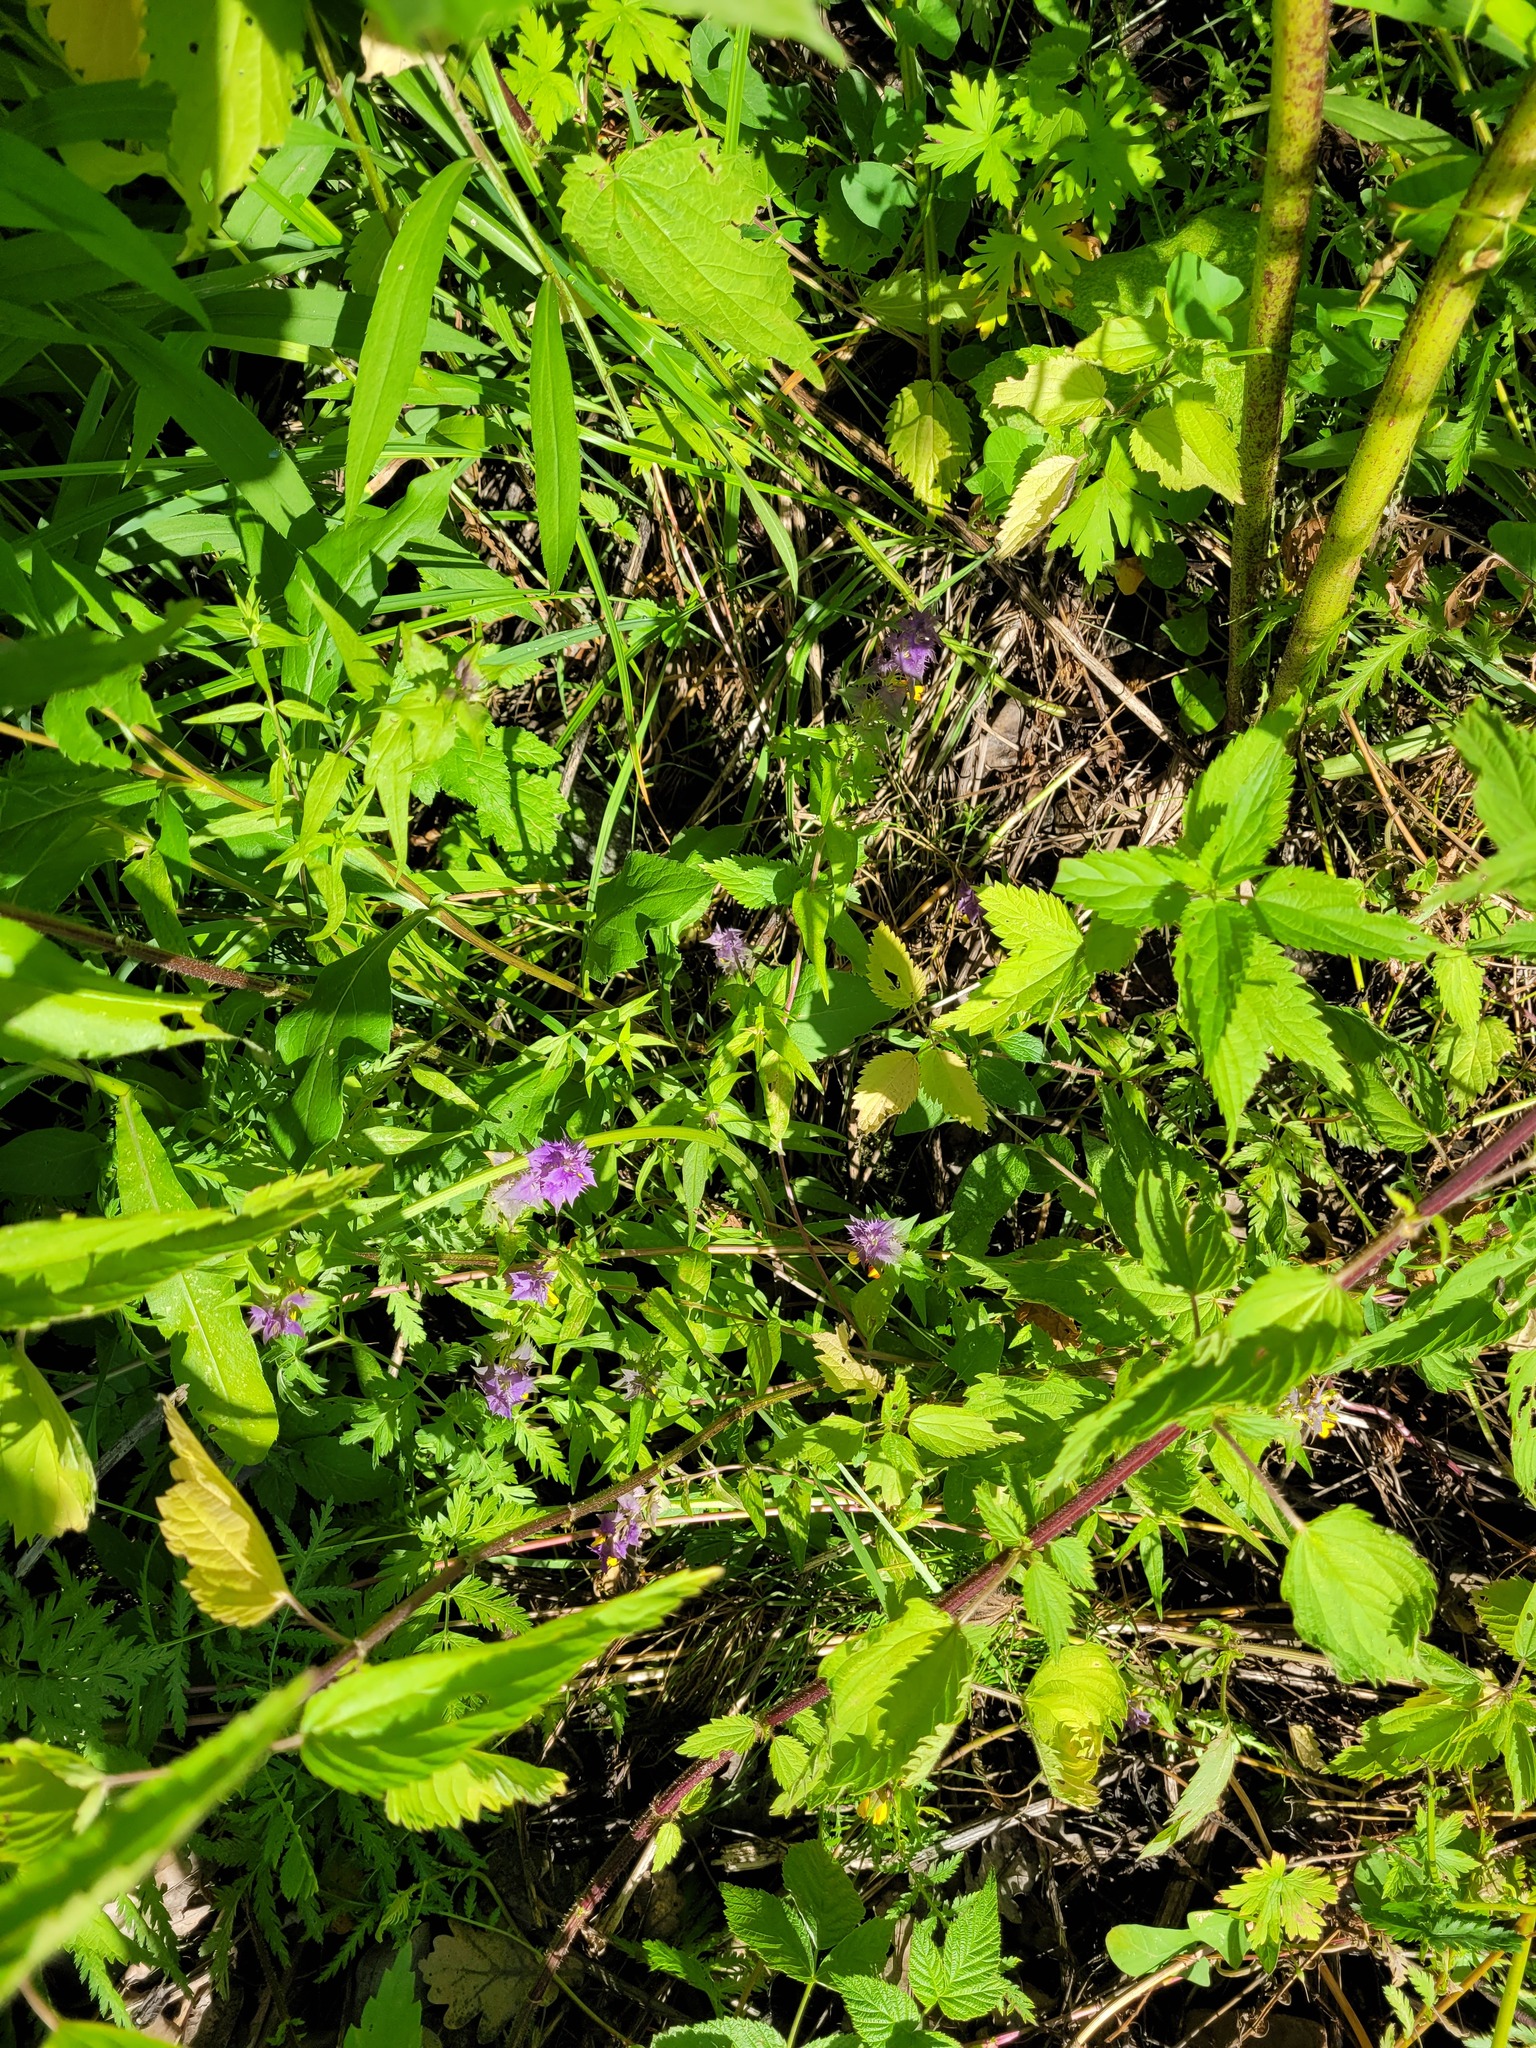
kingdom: Plantae
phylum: Tracheophyta
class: Magnoliopsida
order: Lamiales
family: Orobanchaceae
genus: Melampyrum
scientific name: Melampyrum nemorosum
